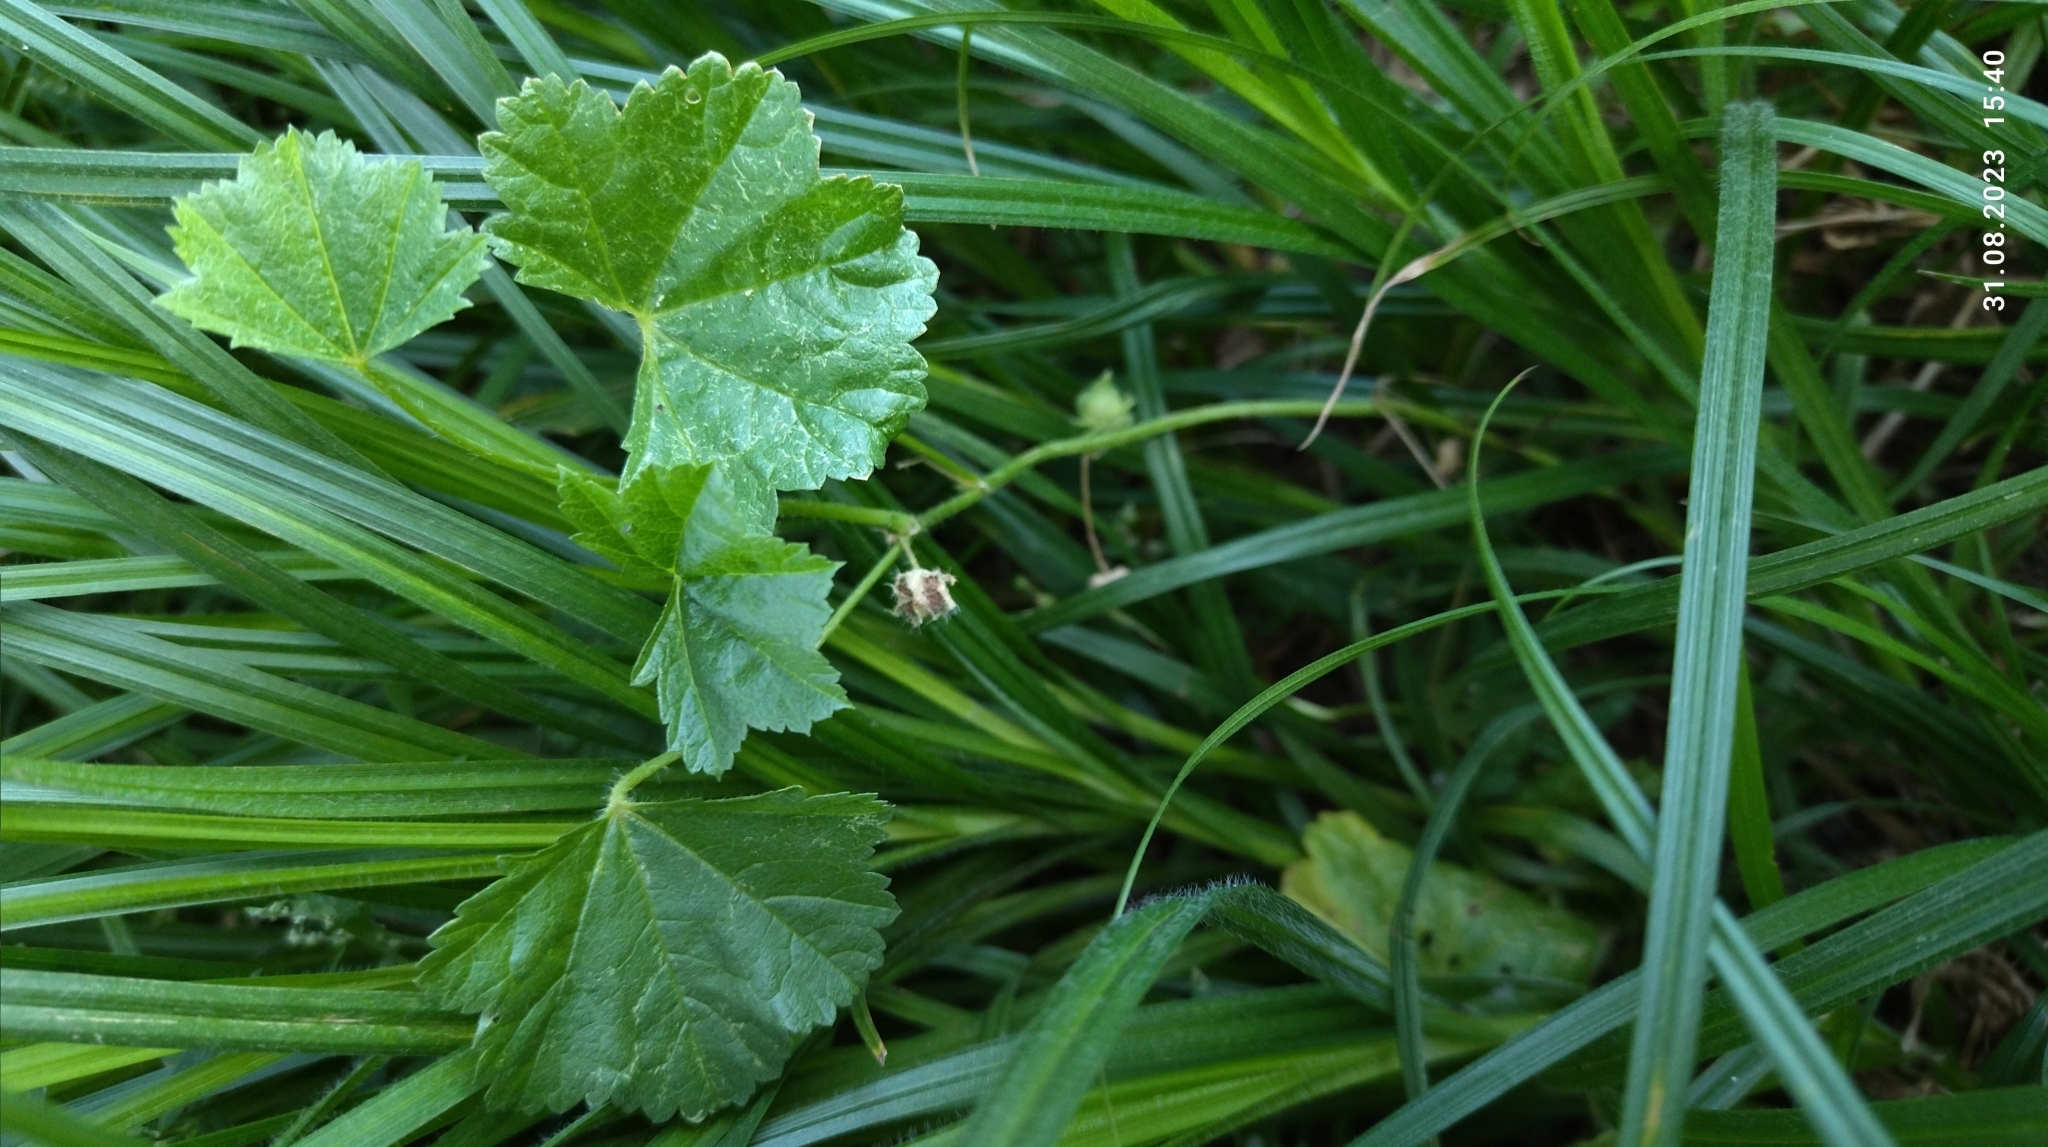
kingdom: Plantae
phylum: Tracheophyta
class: Magnoliopsida
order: Malvales
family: Malvaceae
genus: Malva
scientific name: Malva pusilla
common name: Small mallow
